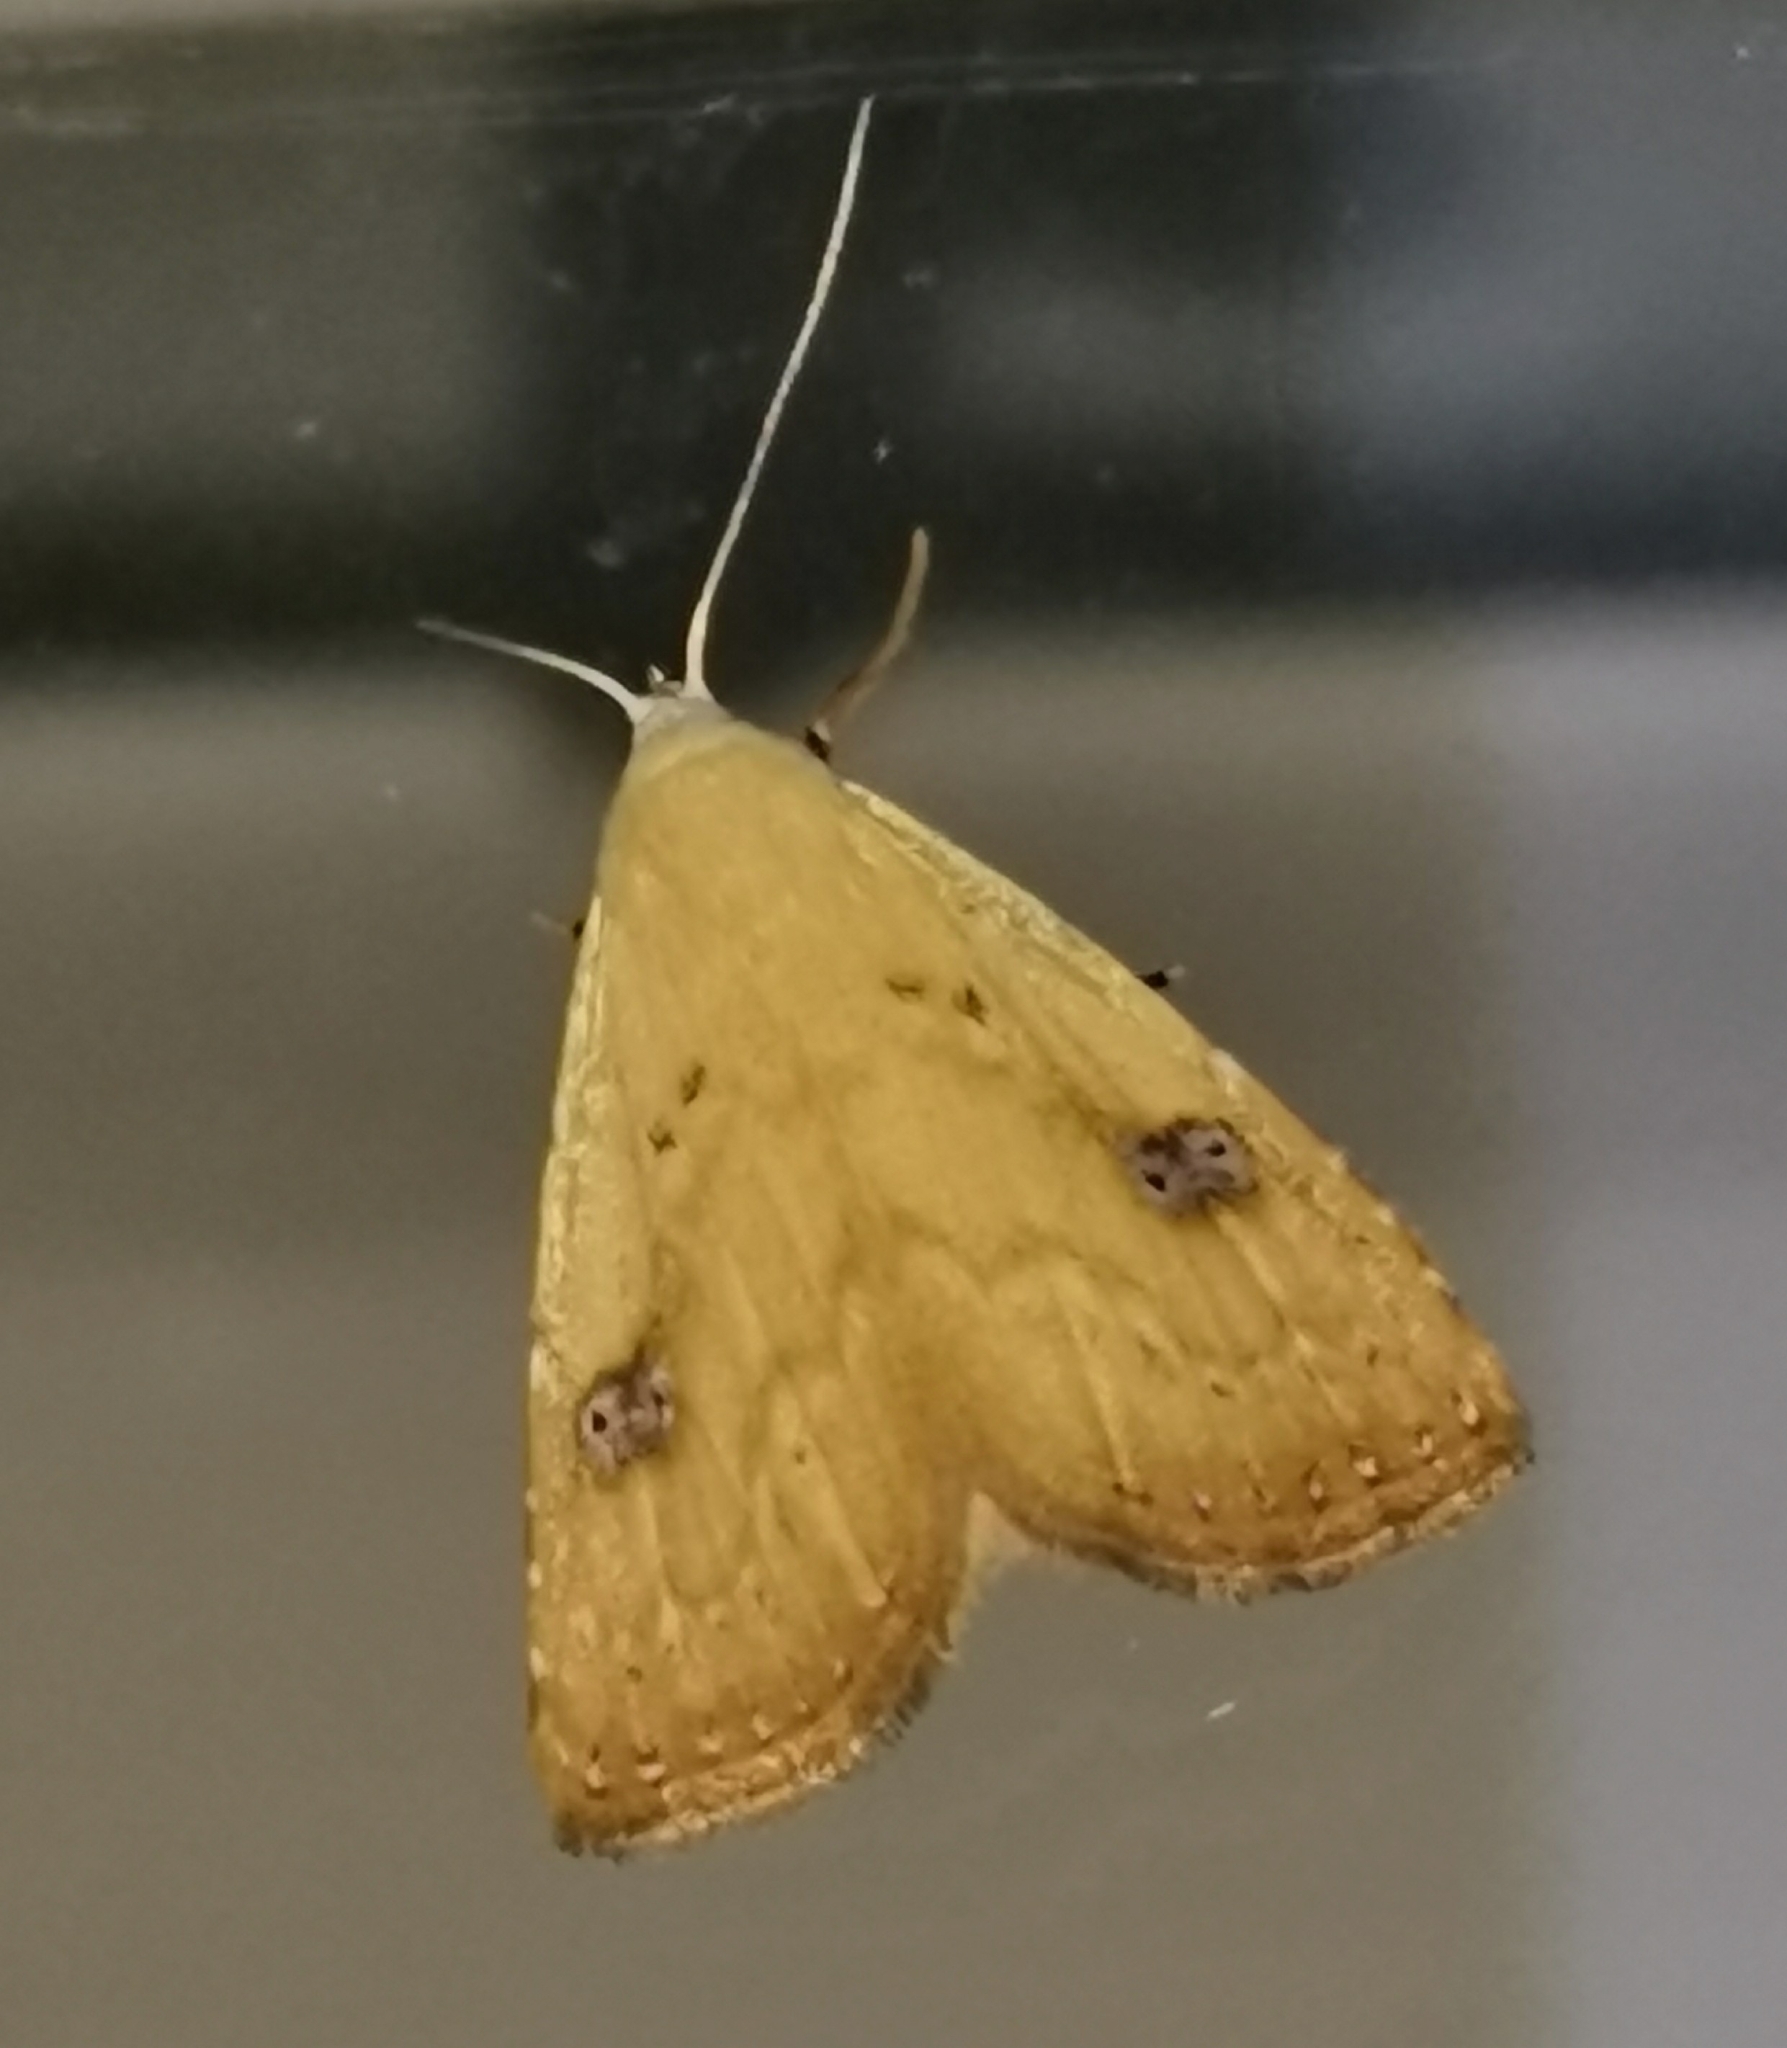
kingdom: Animalia
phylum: Arthropoda
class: Insecta
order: Lepidoptera
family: Erebidae
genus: Rivula
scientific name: Rivula sericealis
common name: Straw dot
